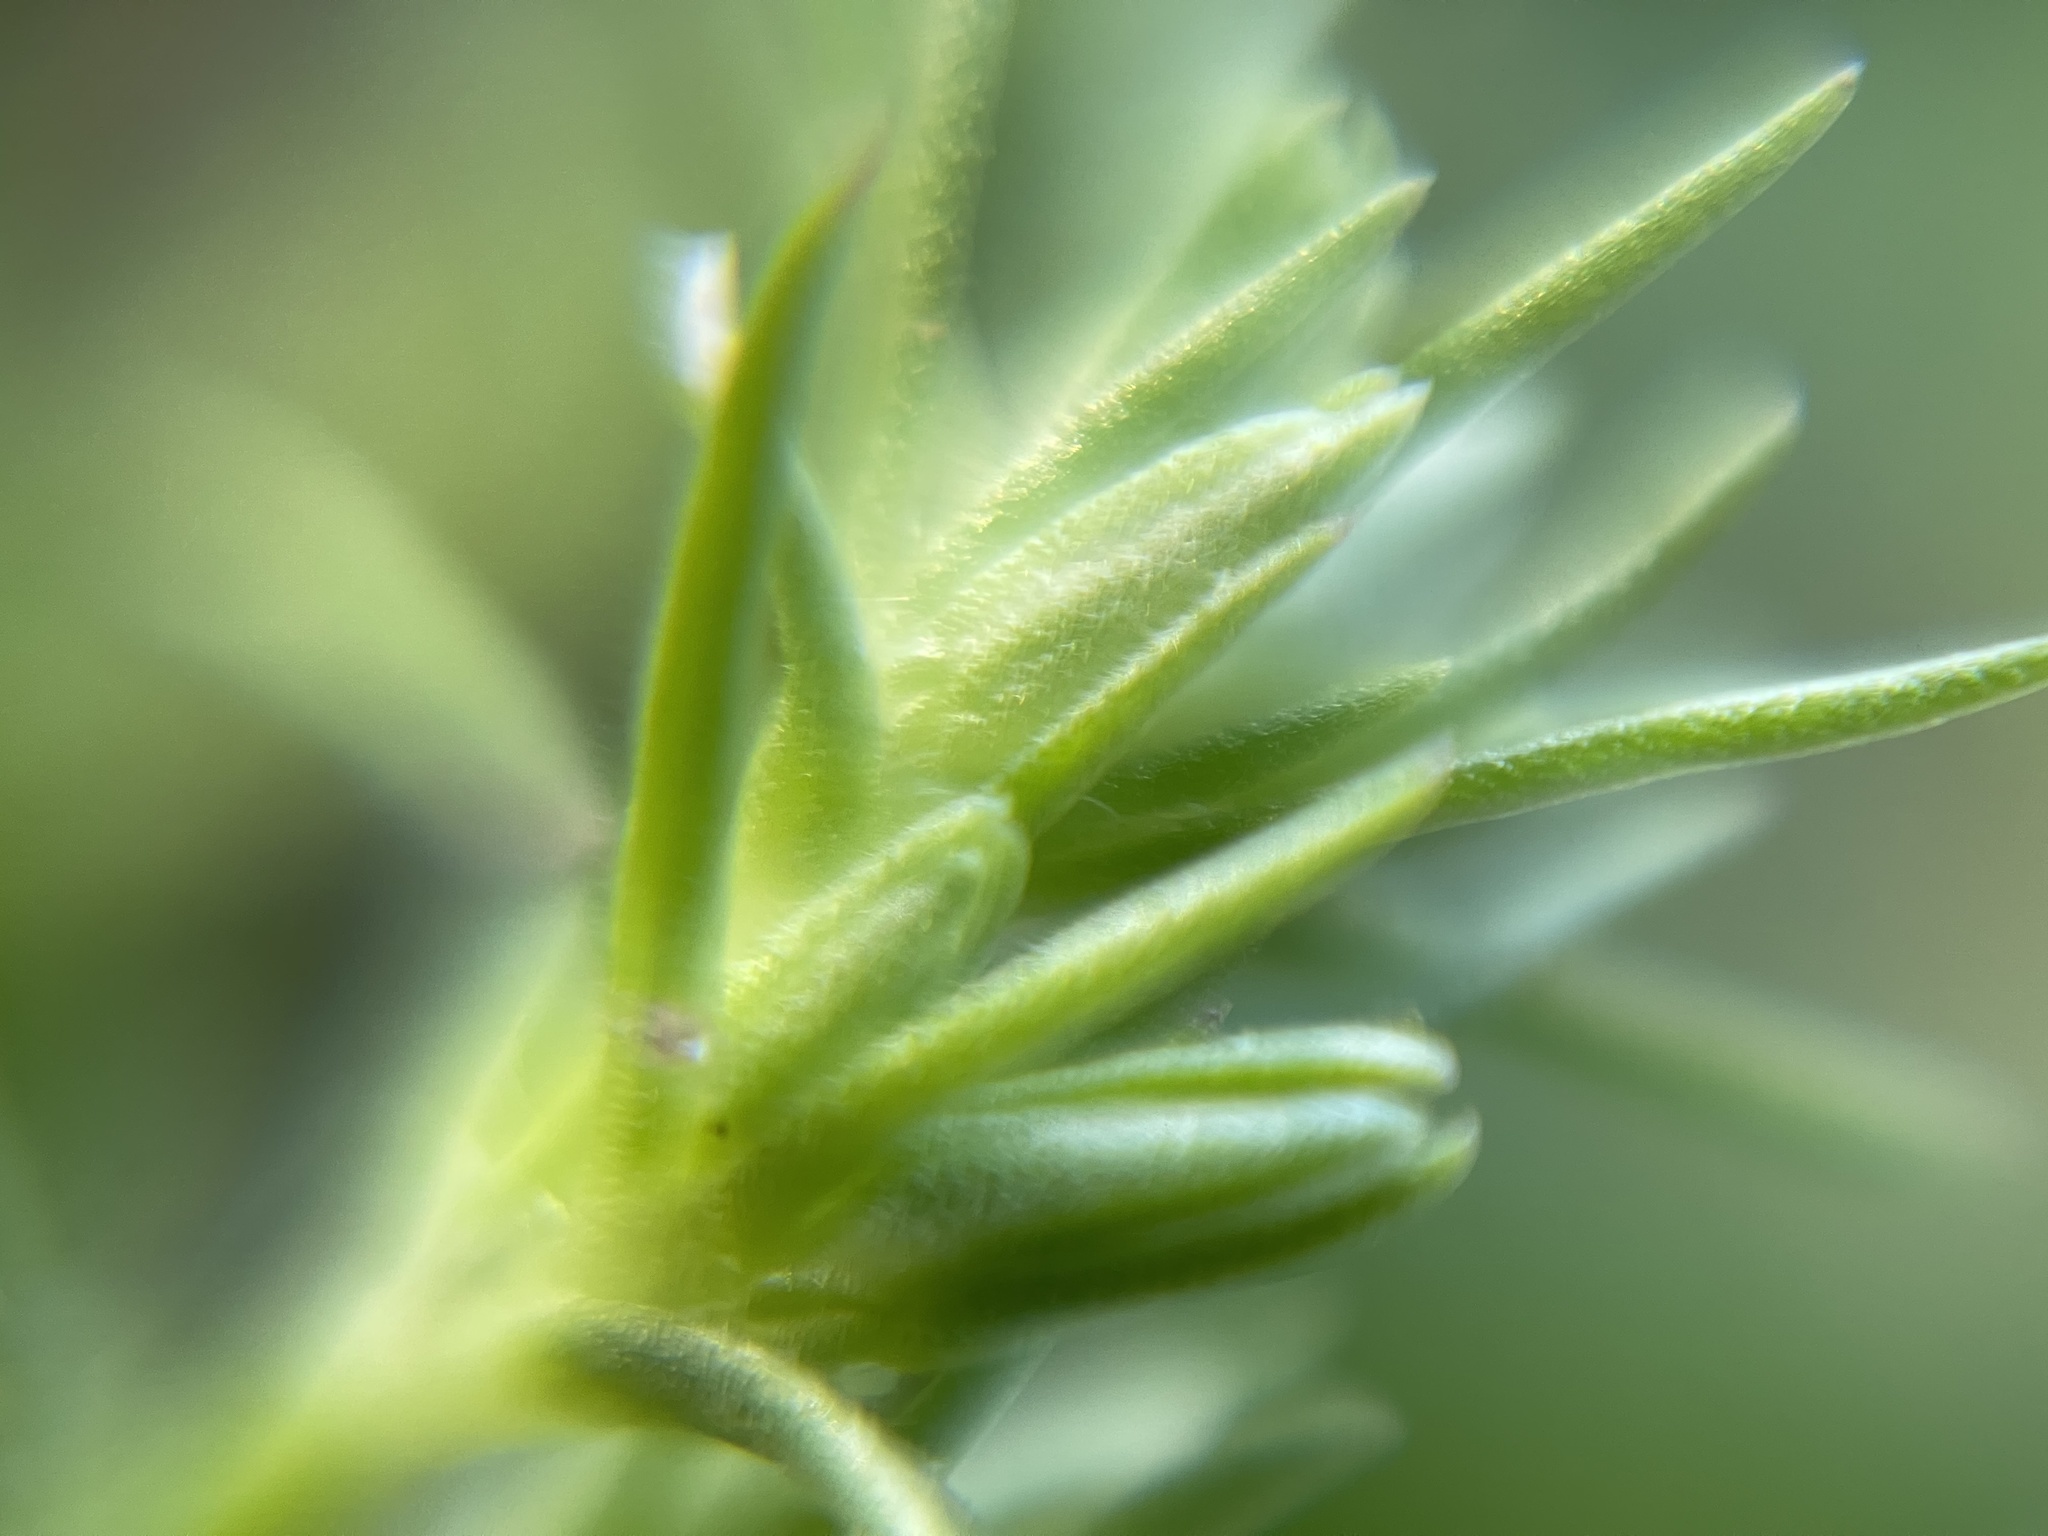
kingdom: Plantae
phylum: Tracheophyta
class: Magnoliopsida
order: Caryophyllales
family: Caryophyllaceae
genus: Scleranthus
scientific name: Scleranthus annuus
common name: Annual knawel
